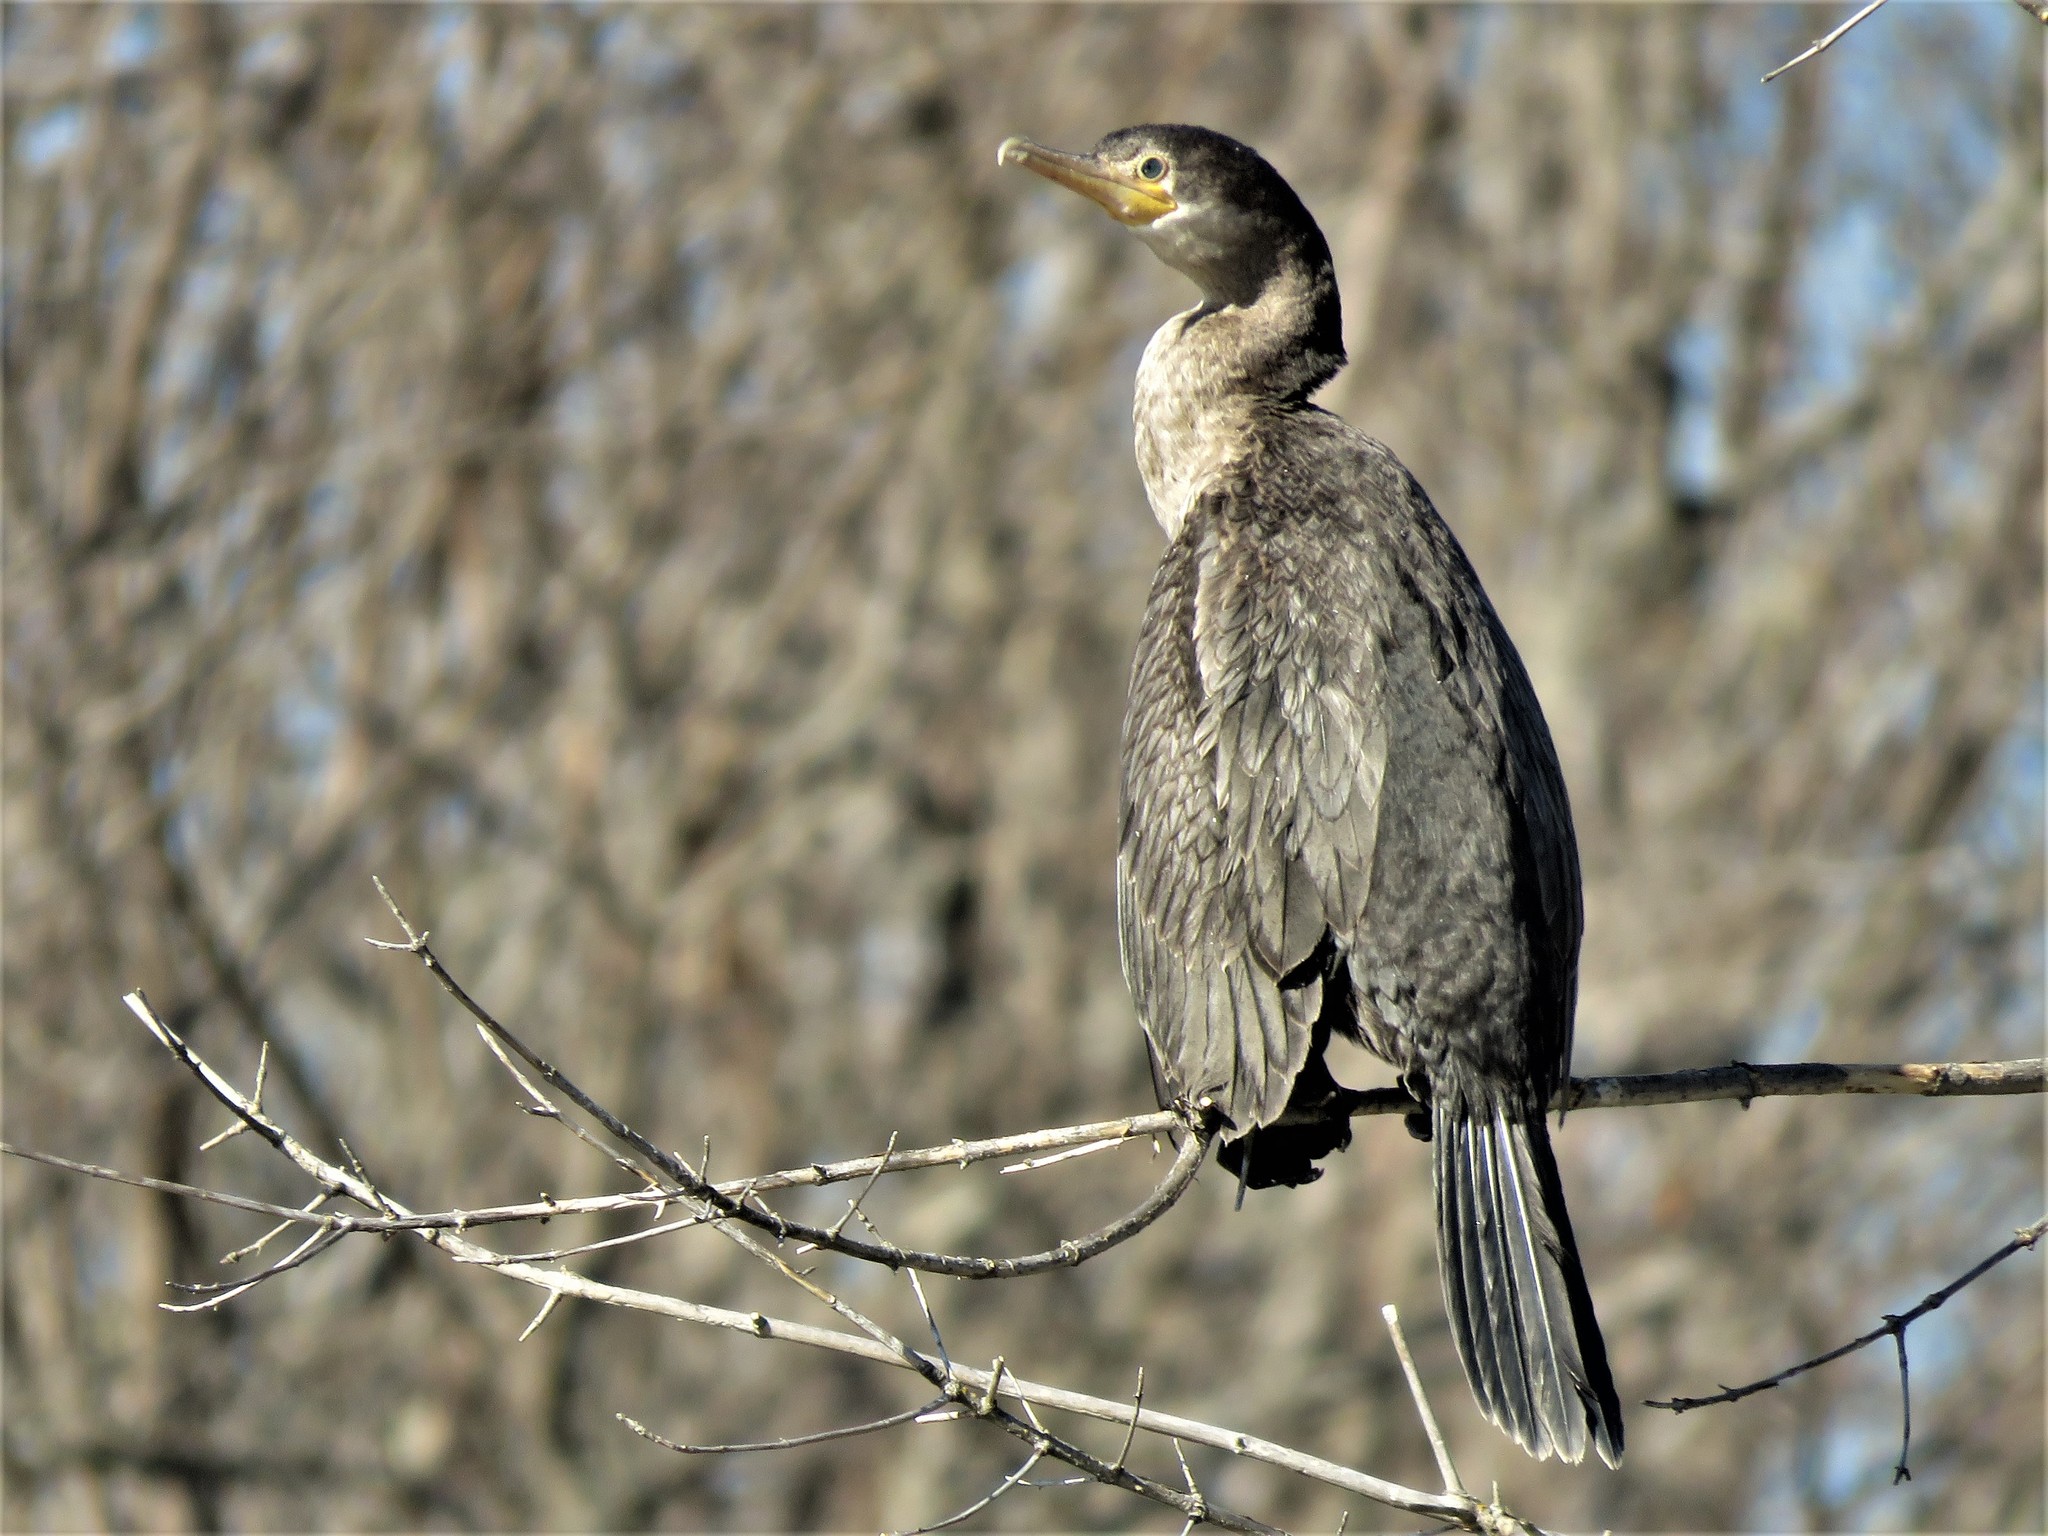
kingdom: Animalia
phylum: Chordata
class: Aves
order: Suliformes
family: Phalacrocoracidae
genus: Phalacrocorax
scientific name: Phalacrocorax auritus
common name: Double-crested cormorant
